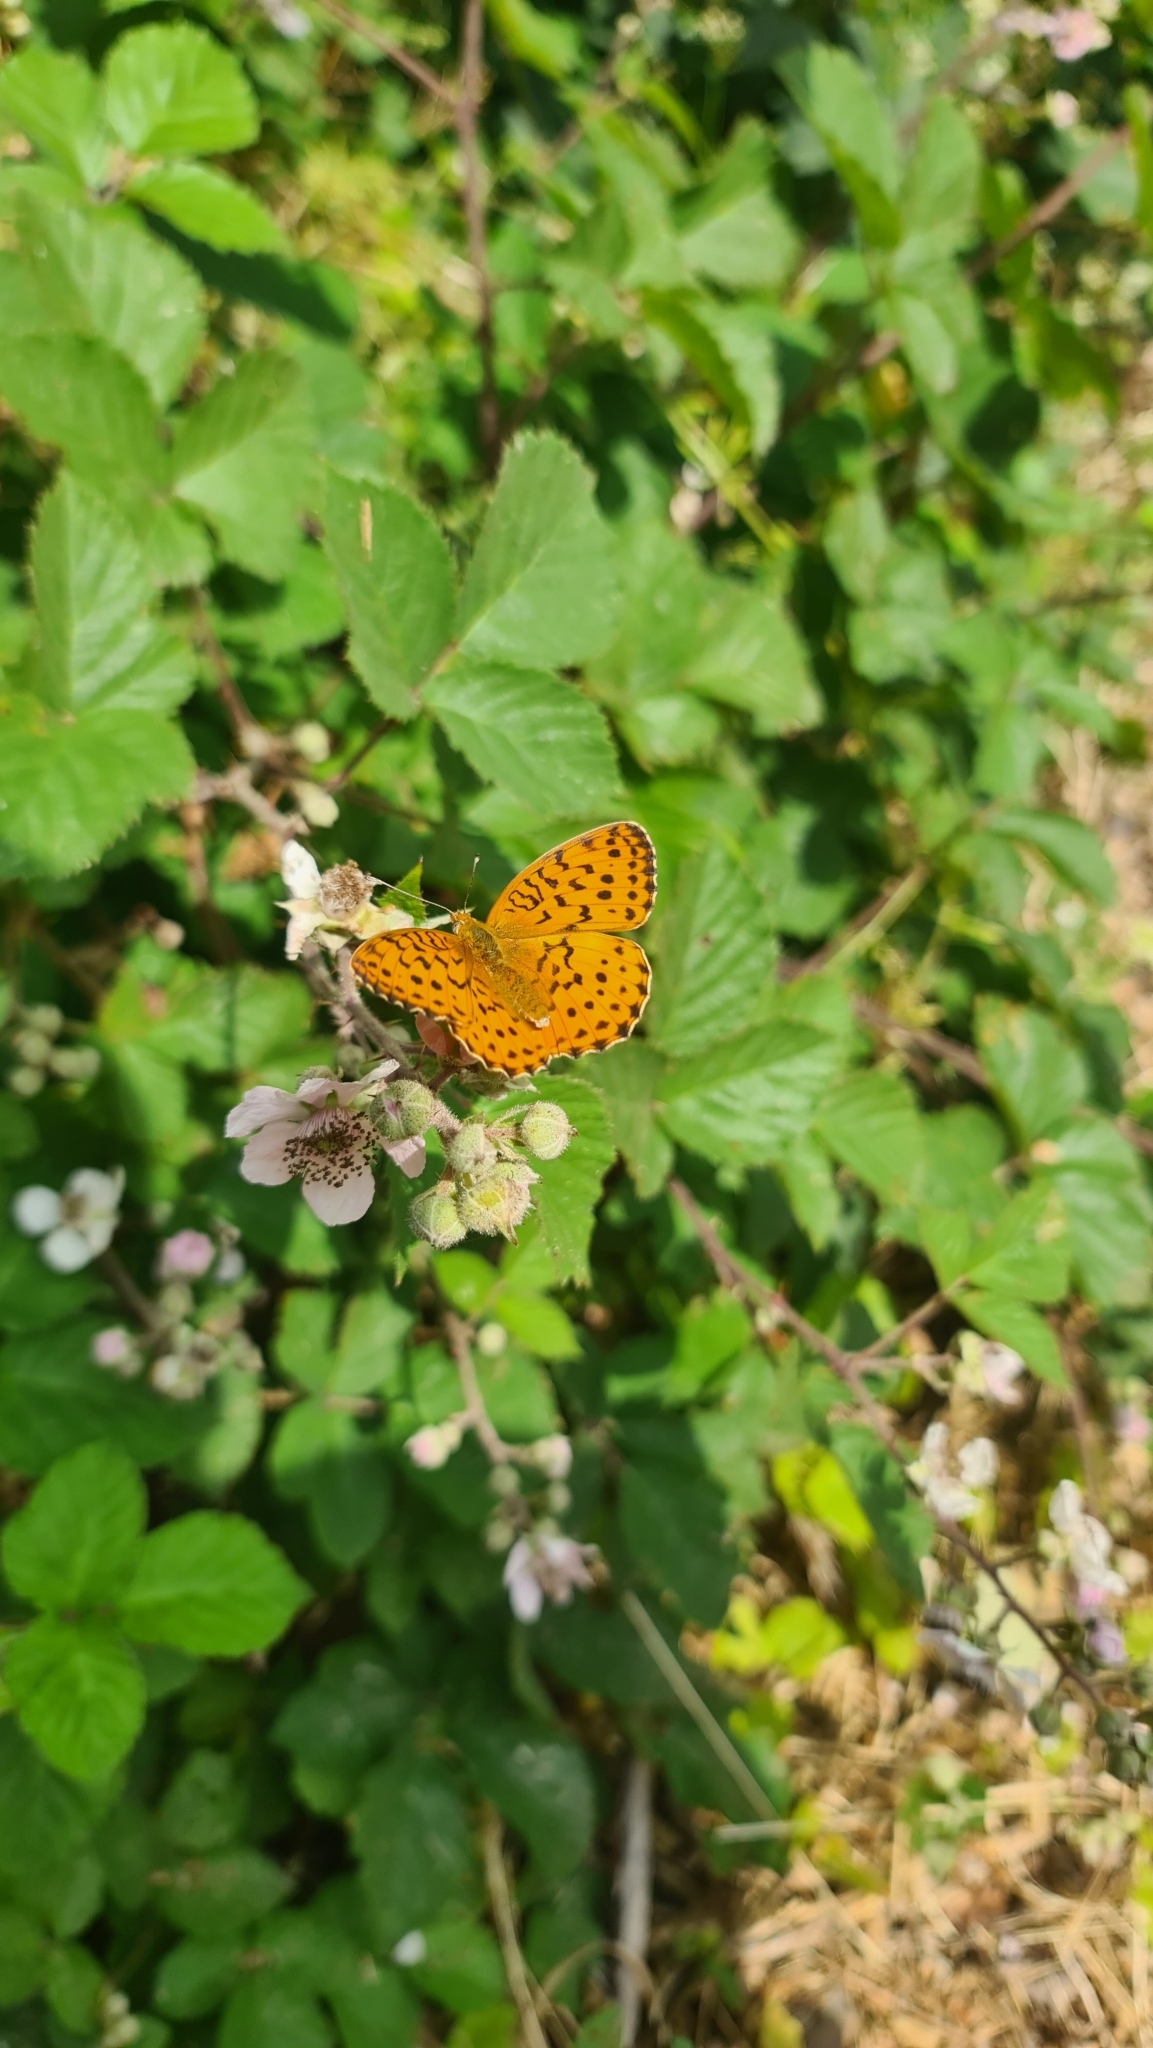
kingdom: Animalia
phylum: Arthropoda
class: Insecta
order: Lepidoptera
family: Nymphalidae
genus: Brenthis
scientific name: Brenthis daphne
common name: Marbled fritillary
